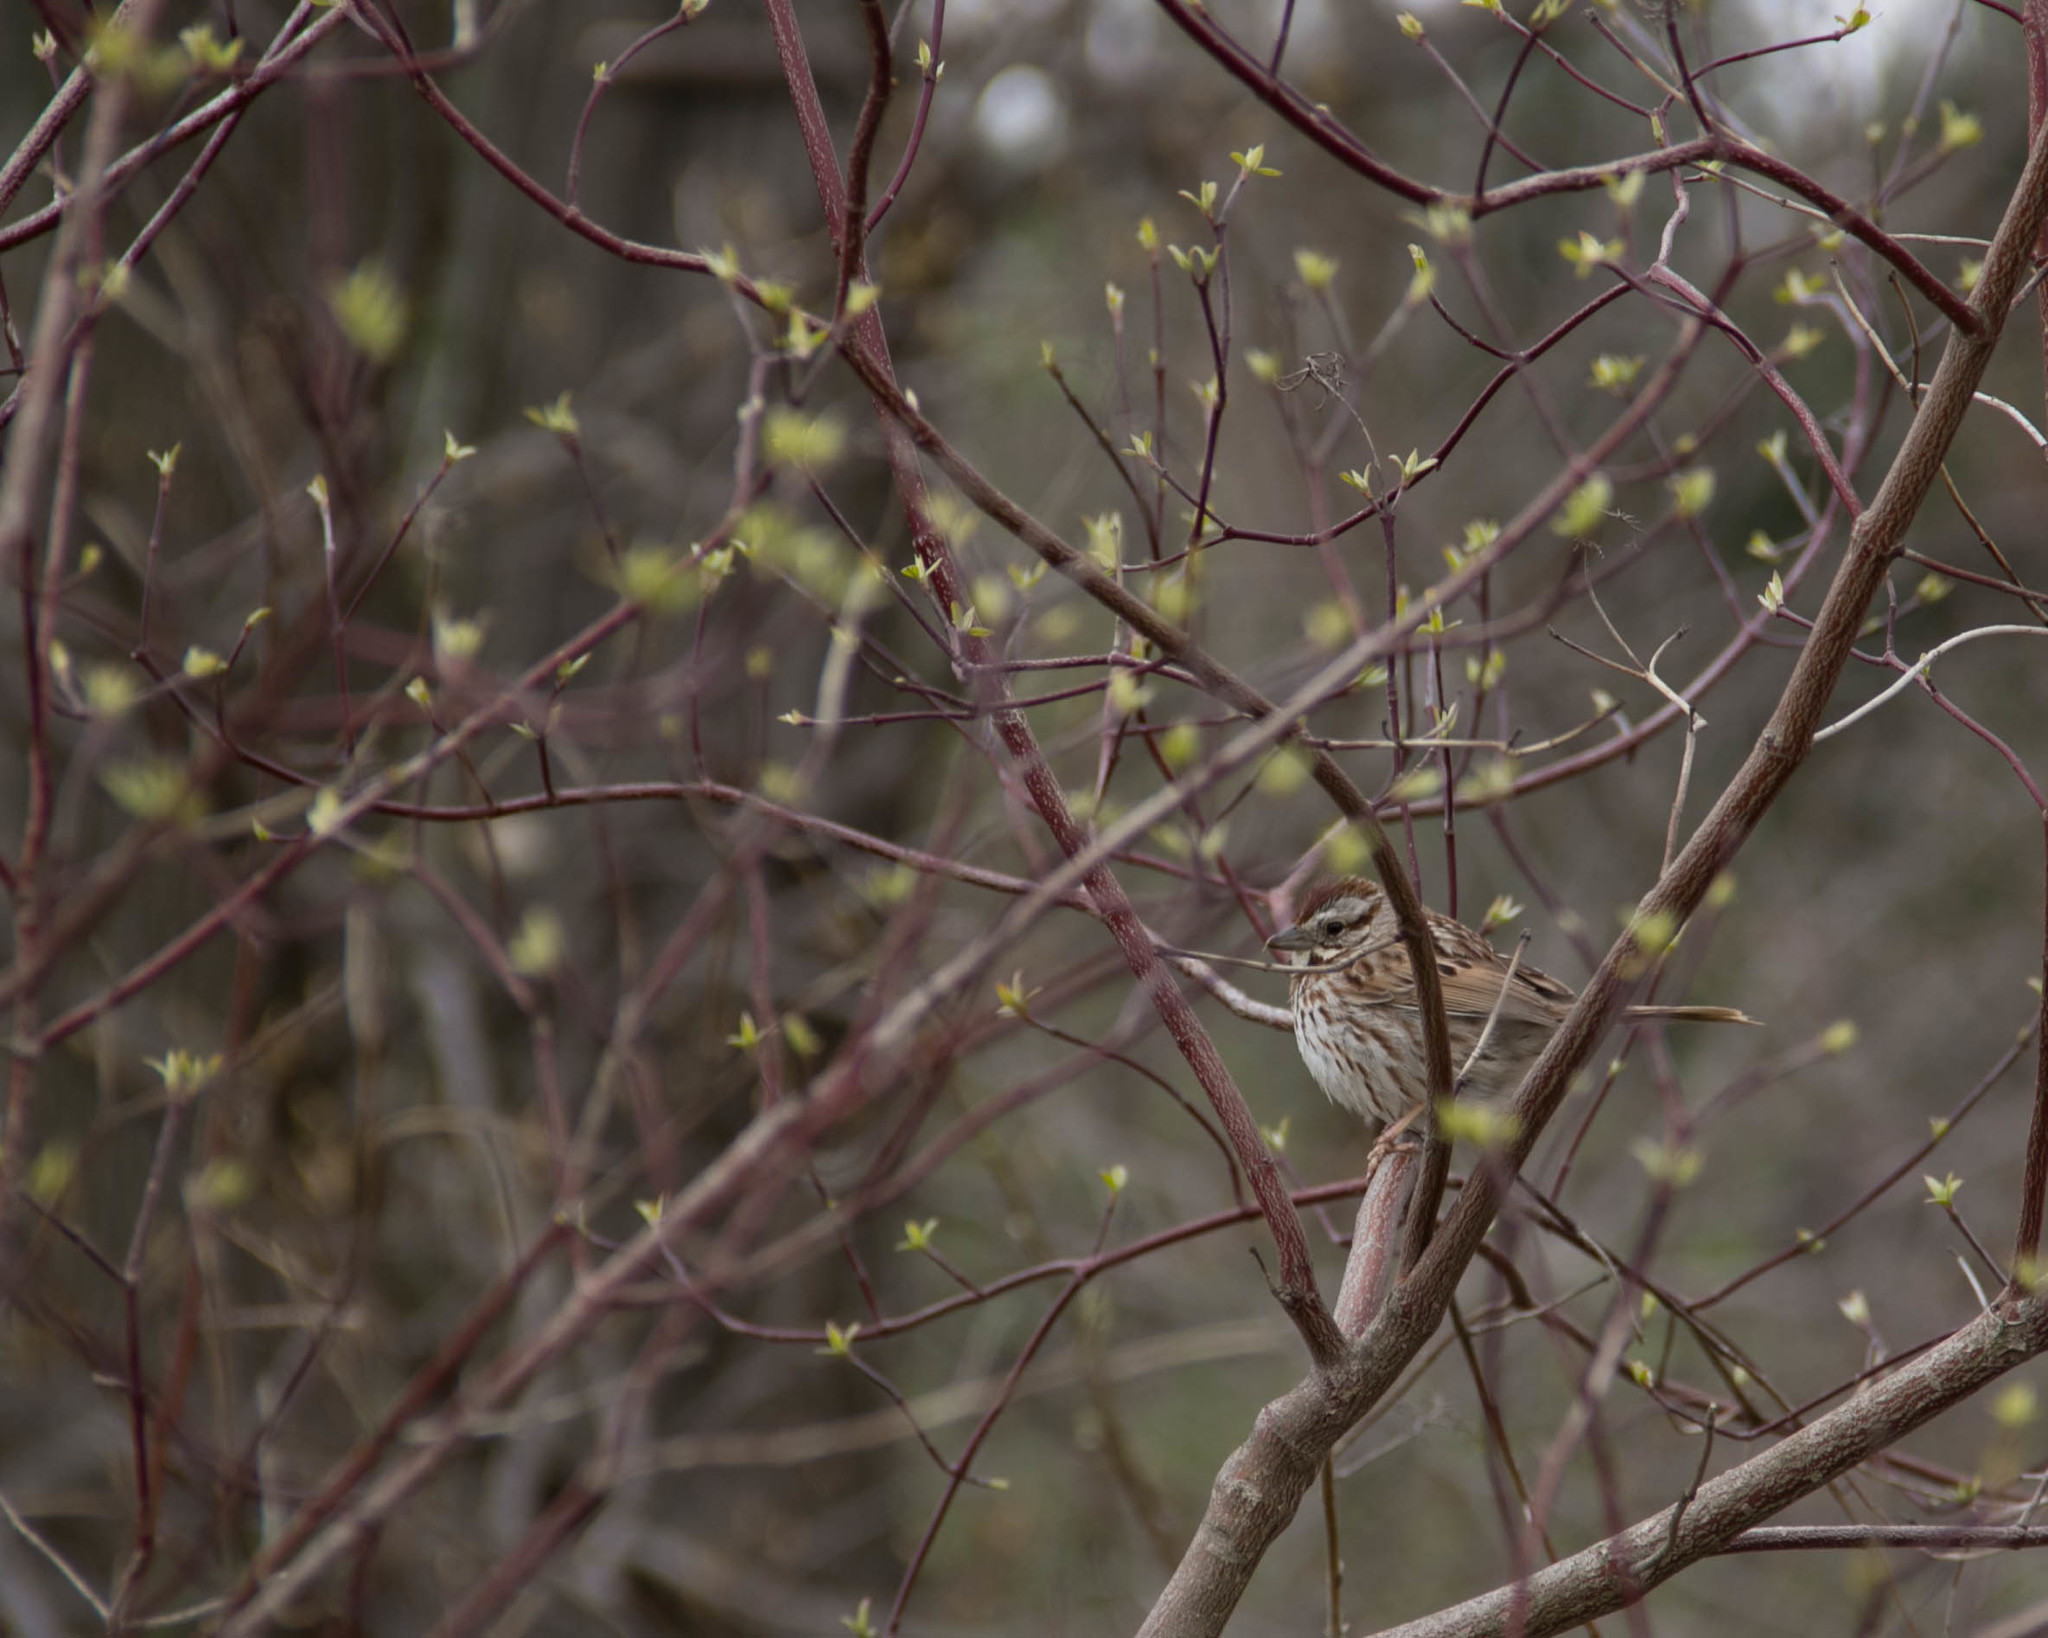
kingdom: Animalia
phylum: Chordata
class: Aves
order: Passeriformes
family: Passerellidae
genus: Melospiza
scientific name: Melospiza melodia
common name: Song sparrow
